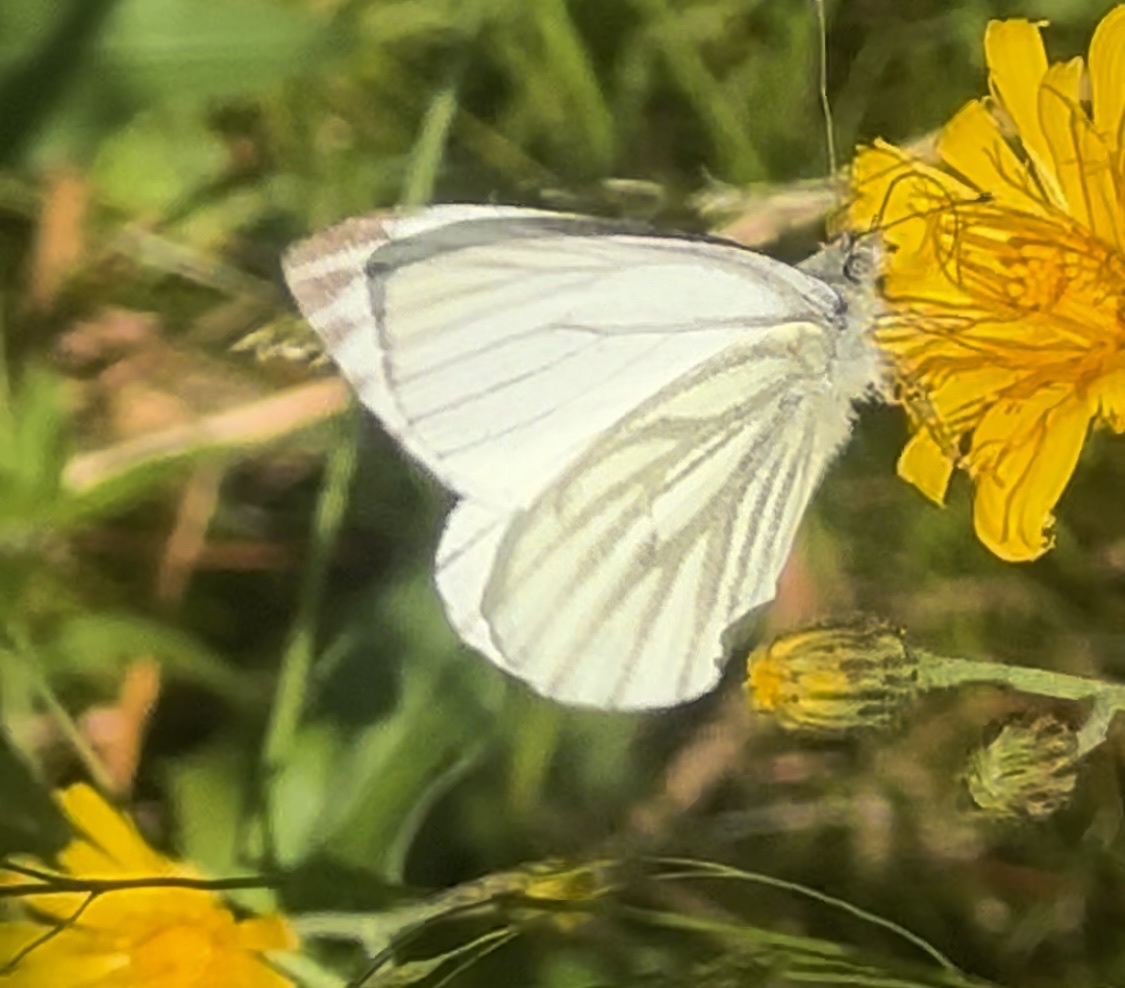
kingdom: Animalia
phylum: Arthropoda
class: Insecta
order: Lepidoptera
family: Pieridae
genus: Pieris
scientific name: Pieris napi
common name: Green-veined white
